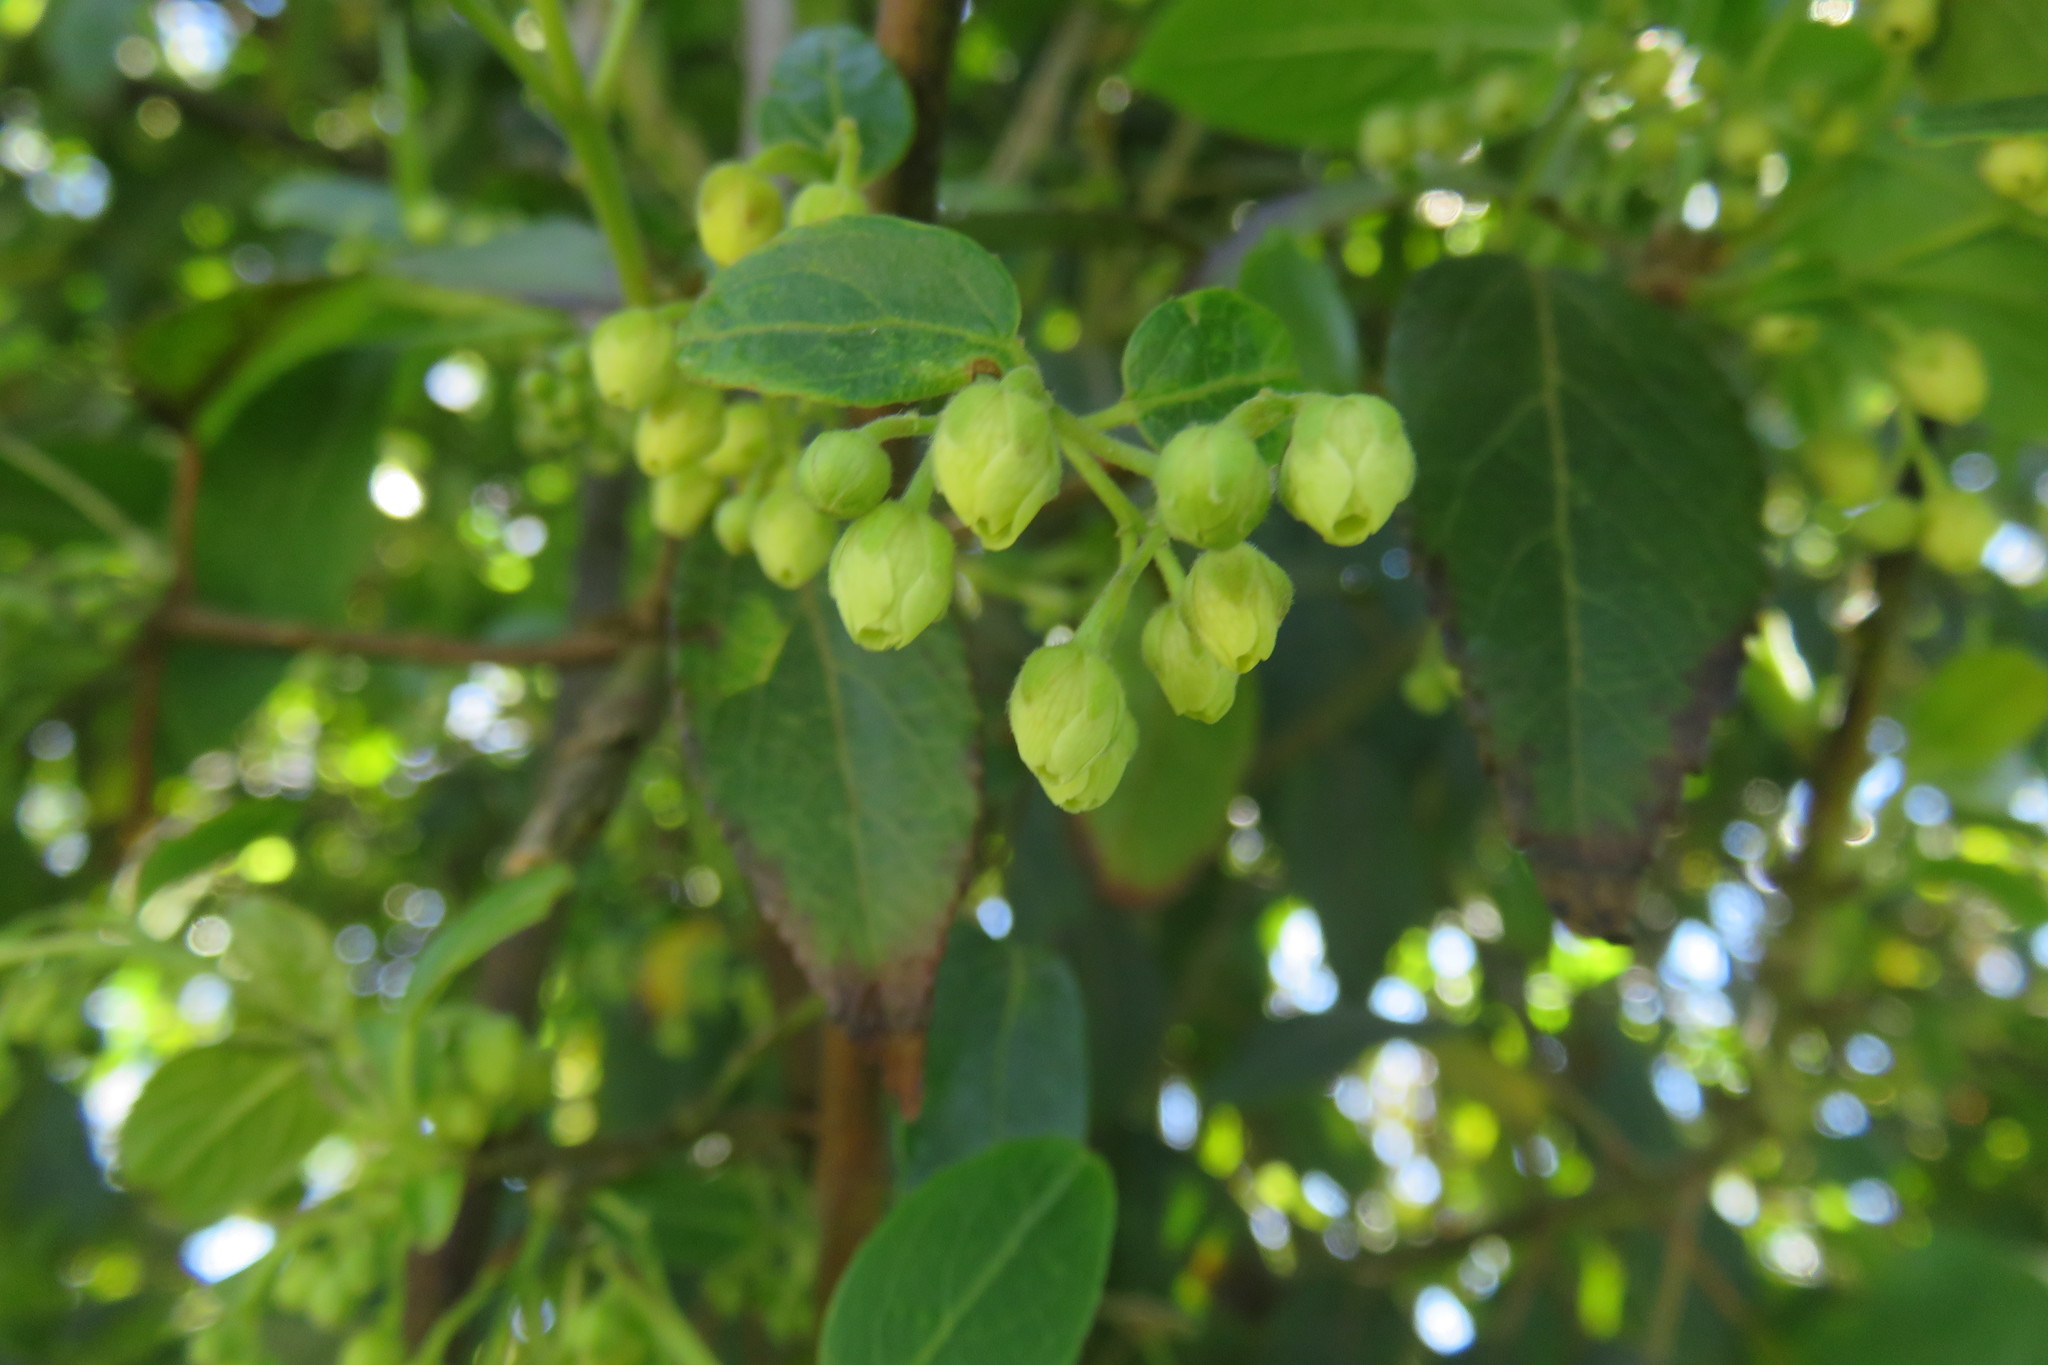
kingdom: Plantae
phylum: Tracheophyta
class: Magnoliopsida
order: Oxalidales
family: Elaeocarpaceae
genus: Aristotelia
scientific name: Aristotelia chilensis
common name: Maquei
